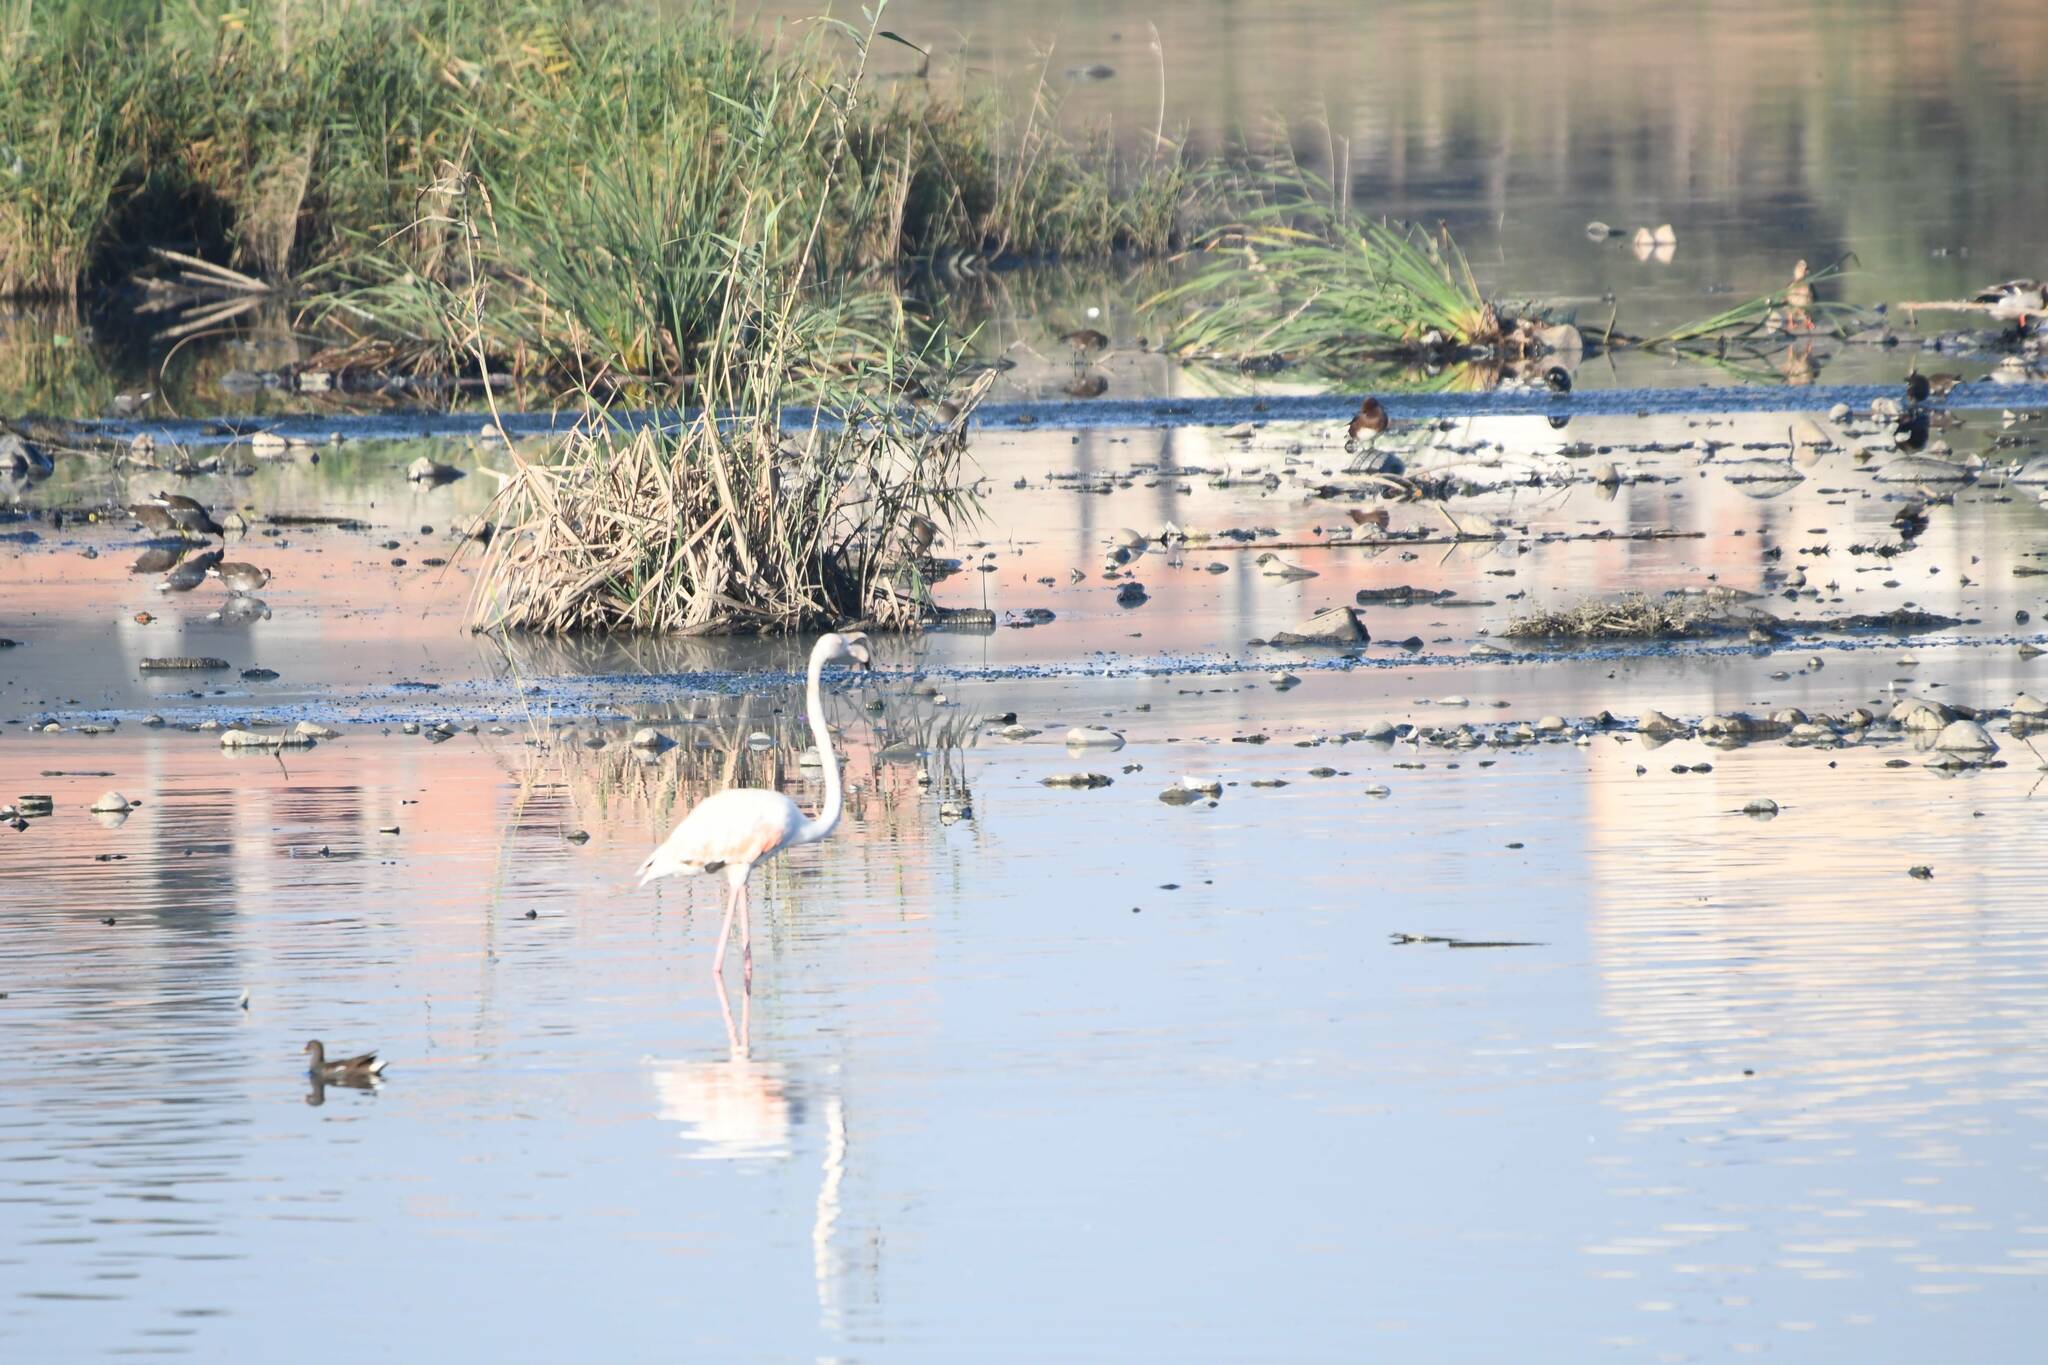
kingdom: Animalia
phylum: Chordata
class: Aves
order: Phoenicopteriformes
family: Phoenicopteridae
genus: Phoenicopterus
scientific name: Phoenicopterus roseus
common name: Greater flamingo
